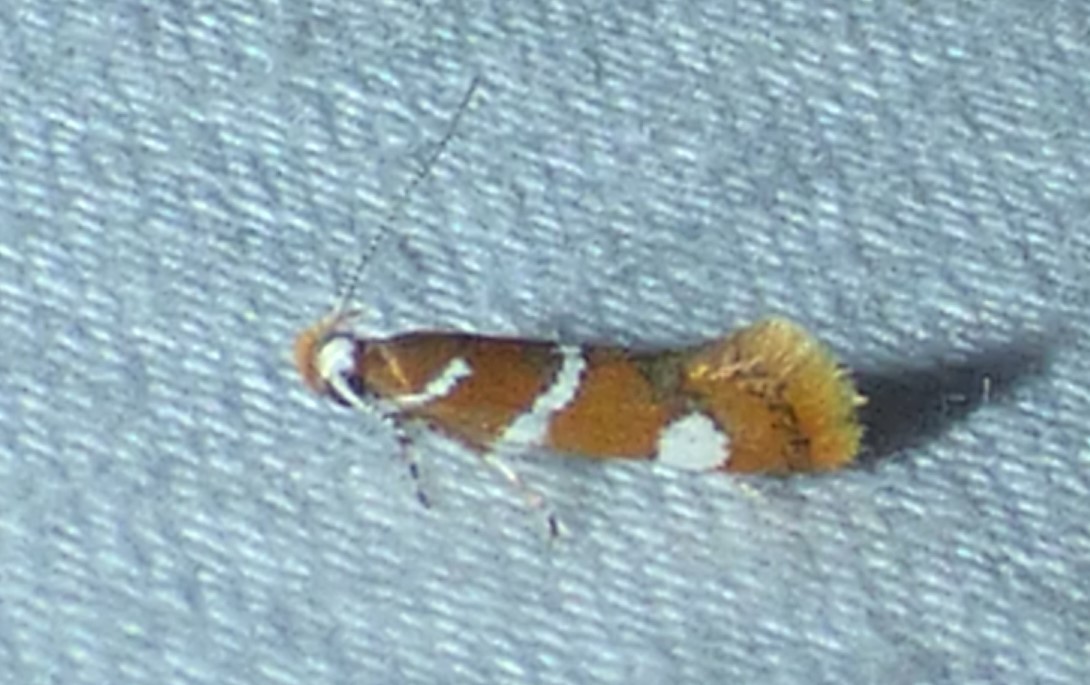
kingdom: Animalia
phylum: Arthropoda
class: Insecta
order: Lepidoptera
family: Oecophoridae
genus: Promalactis
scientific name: Promalactis suzukiella
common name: Moth
